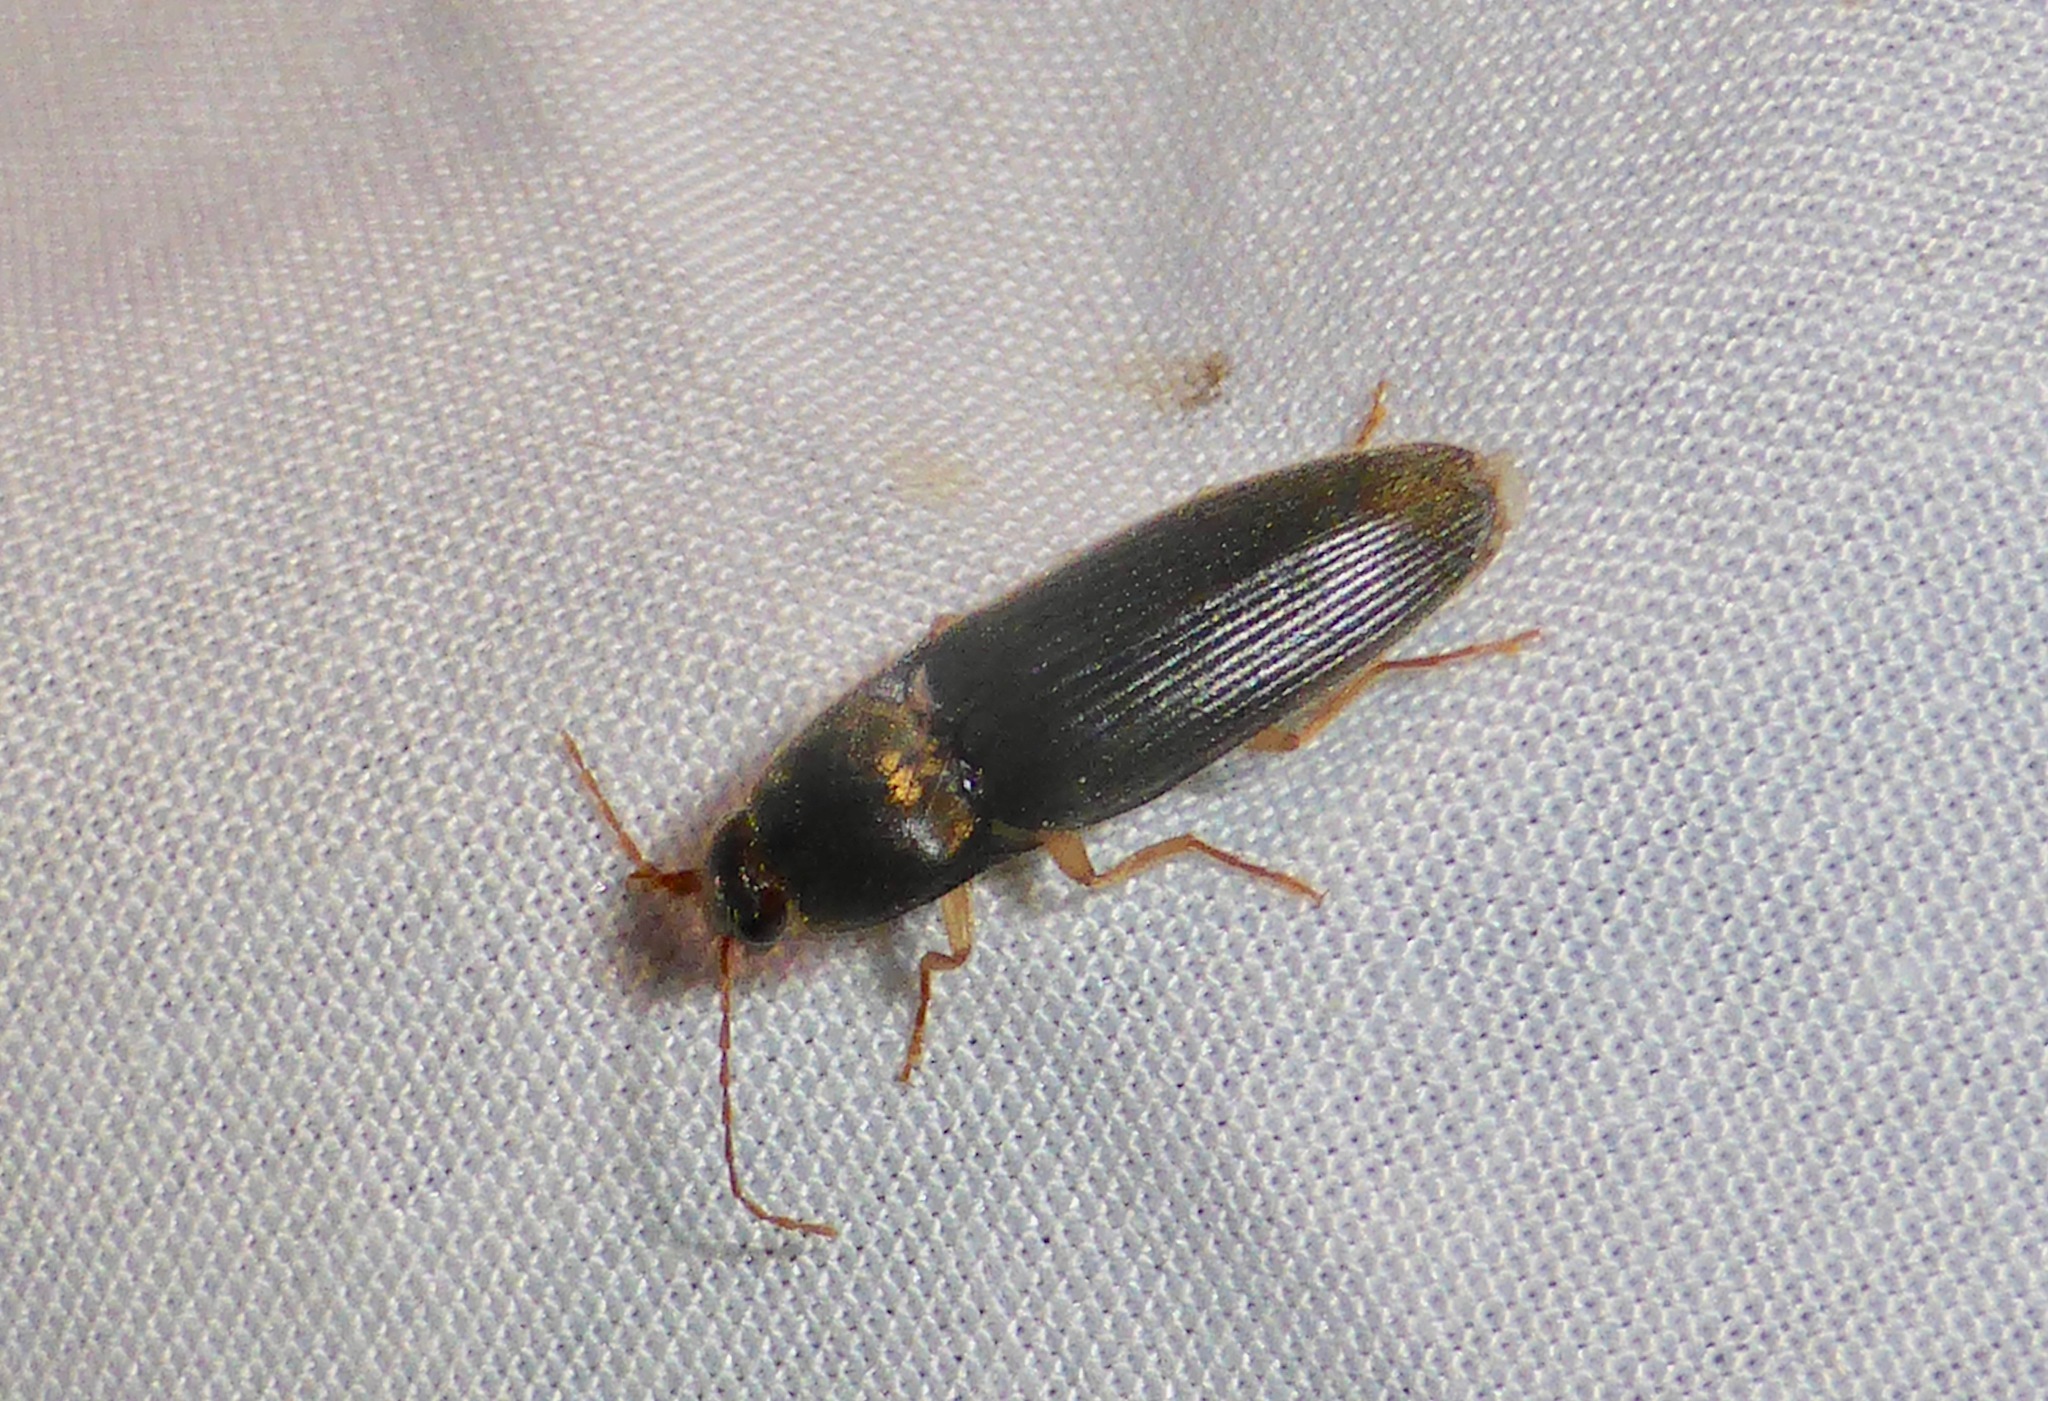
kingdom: Animalia
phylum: Arthropoda
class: Insecta
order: Coleoptera
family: Elateridae
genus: Conoderus
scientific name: Conoderus exsul
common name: Click beetle
